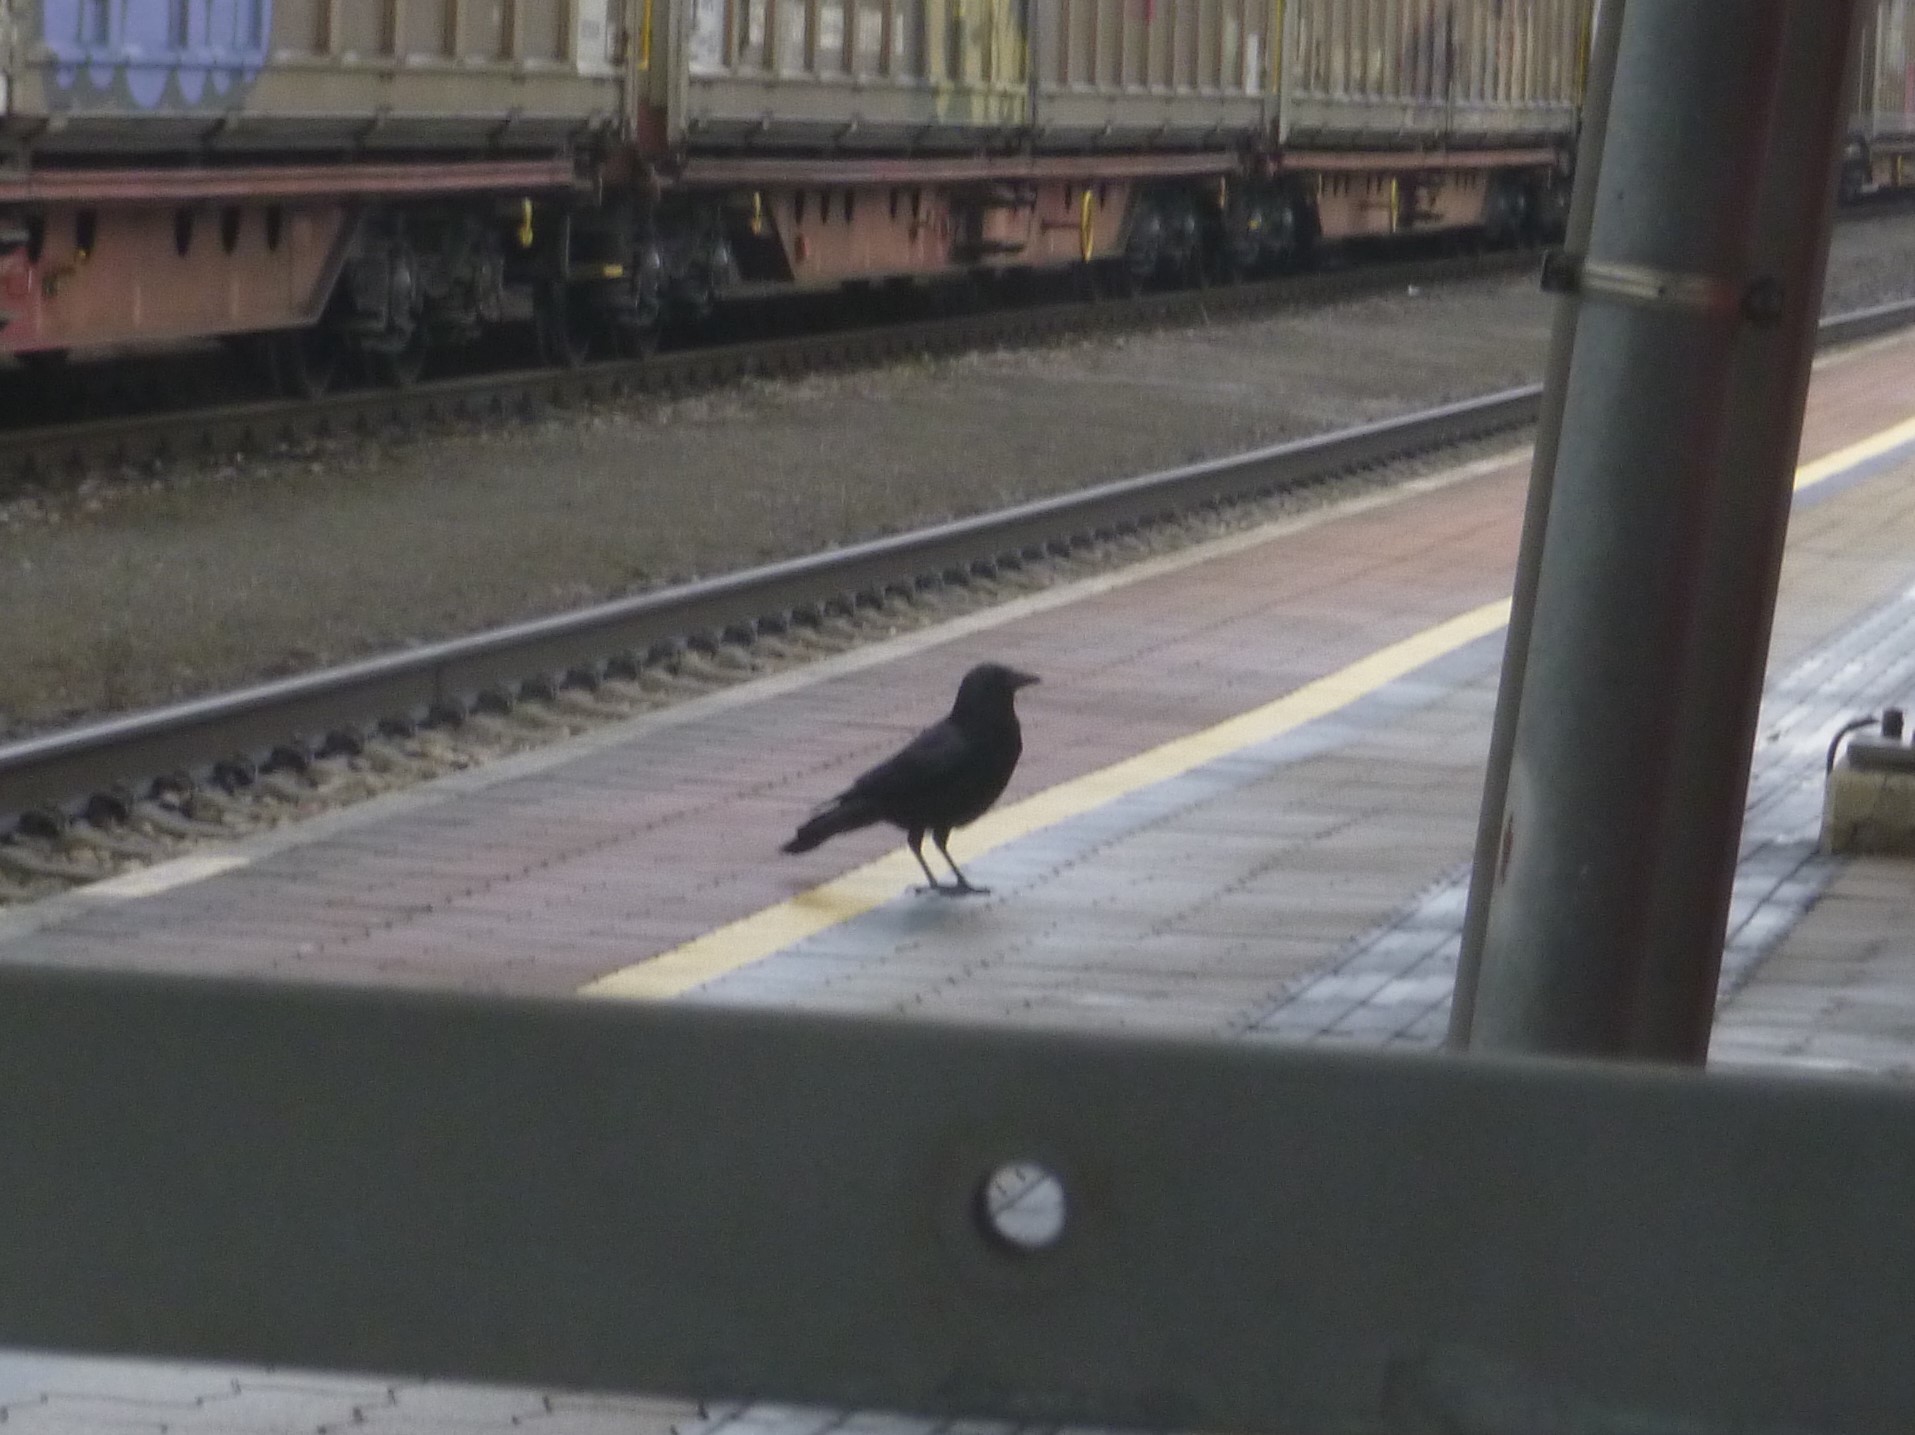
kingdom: Animalia
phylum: Chordata
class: Aves
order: Passeriformes
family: Corvidae
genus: Corvus
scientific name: Corvus corone
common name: Carrion crow
